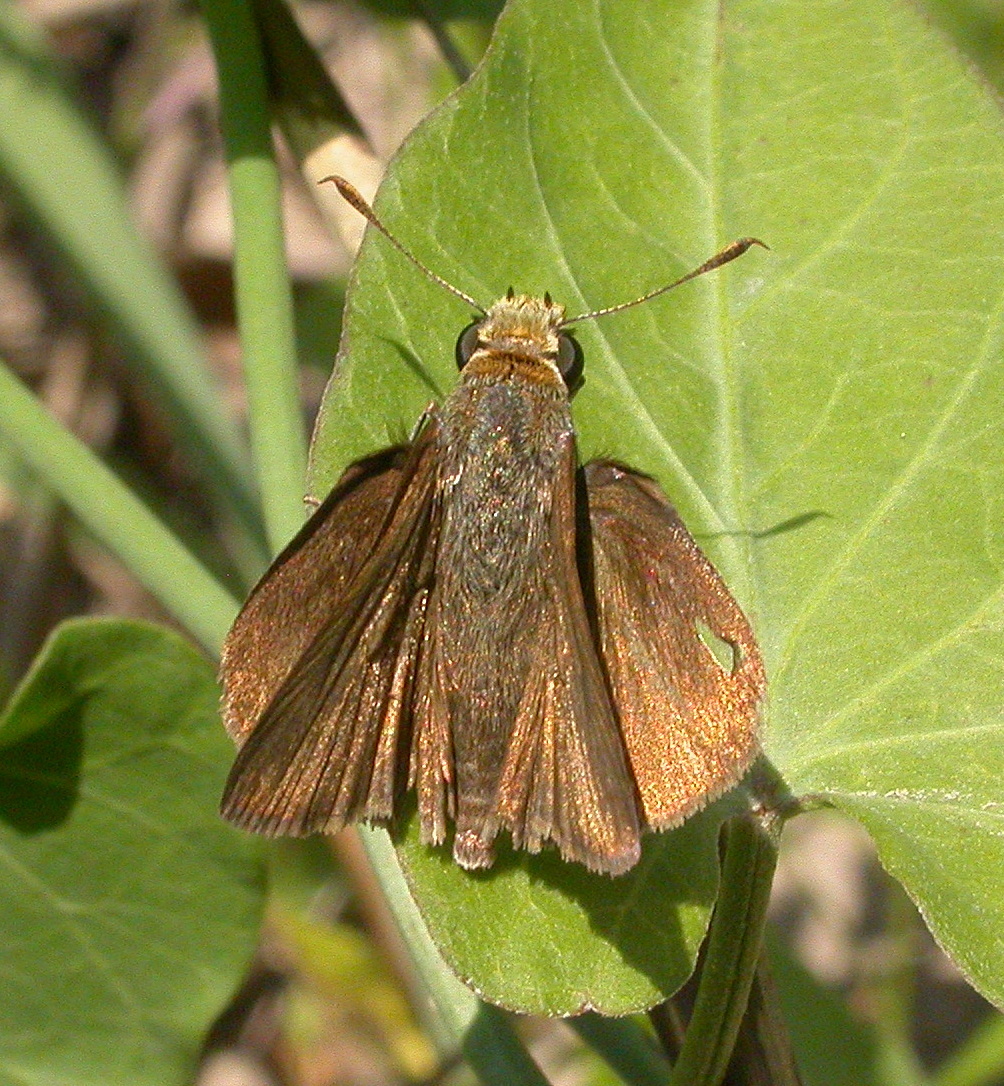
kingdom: Animalia
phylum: Arthropoda
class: Insecta
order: Lepidoptera
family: Hesperiidae
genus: Euphyes
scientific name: Euphyes vestris
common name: Dun skipper
